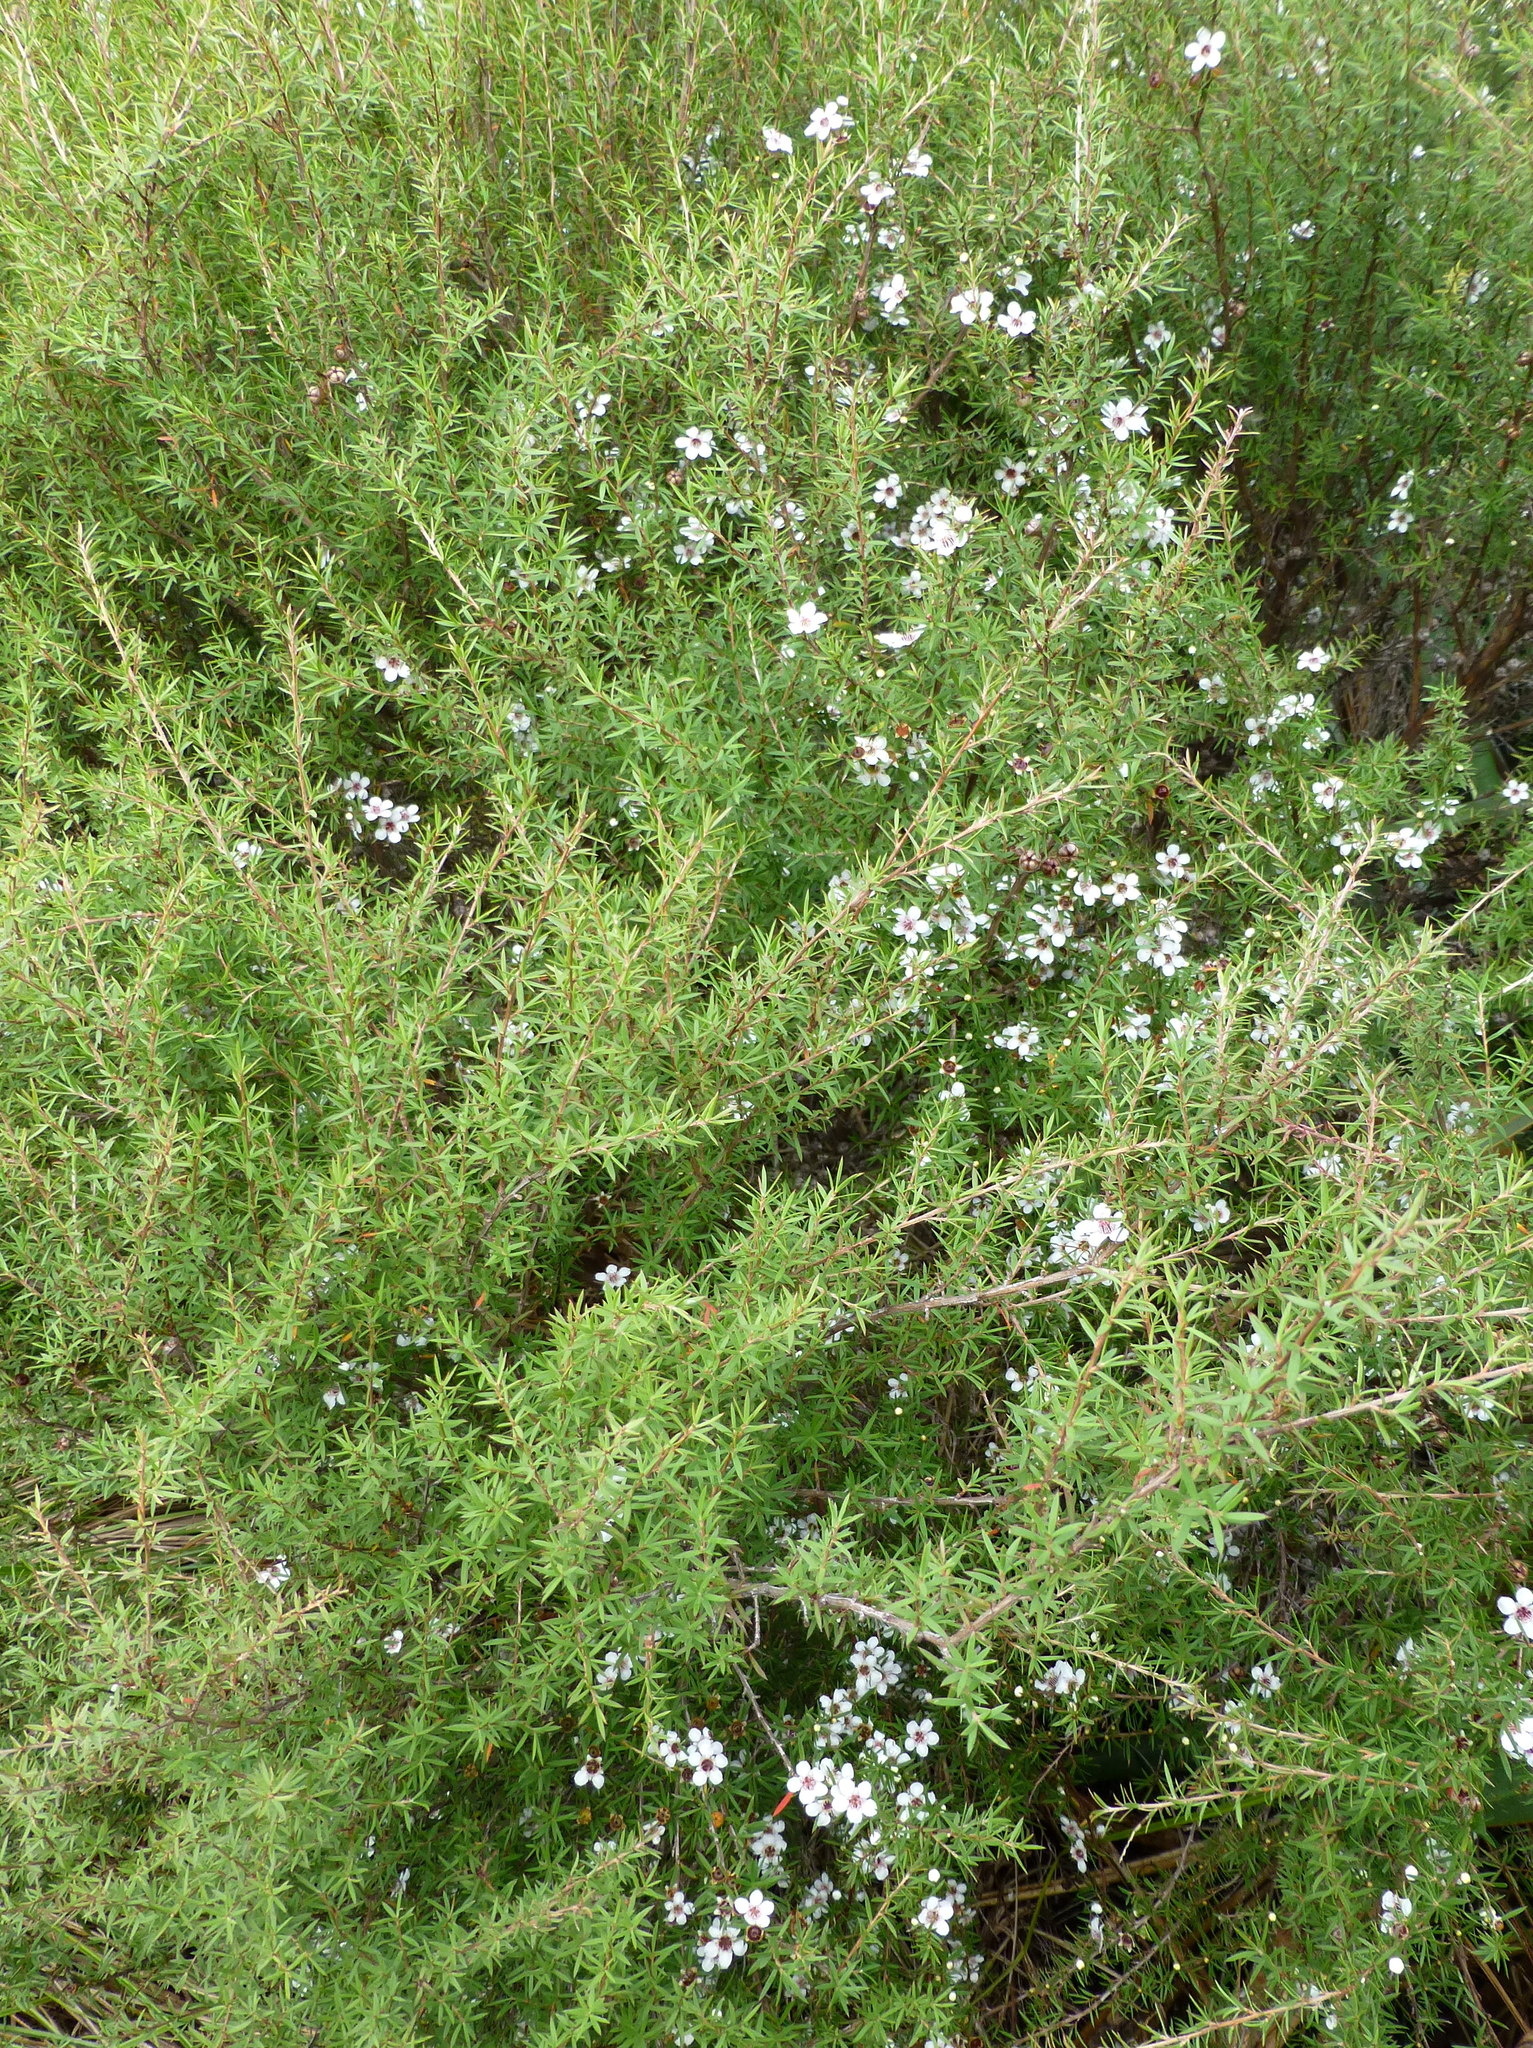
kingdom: Plantae
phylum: Tracheophyta
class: Magnoliopsida
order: Myrtales
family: Myrtaceae
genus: Leptospermum
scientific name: Leptospermum scoparium
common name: Broom tea-tree
